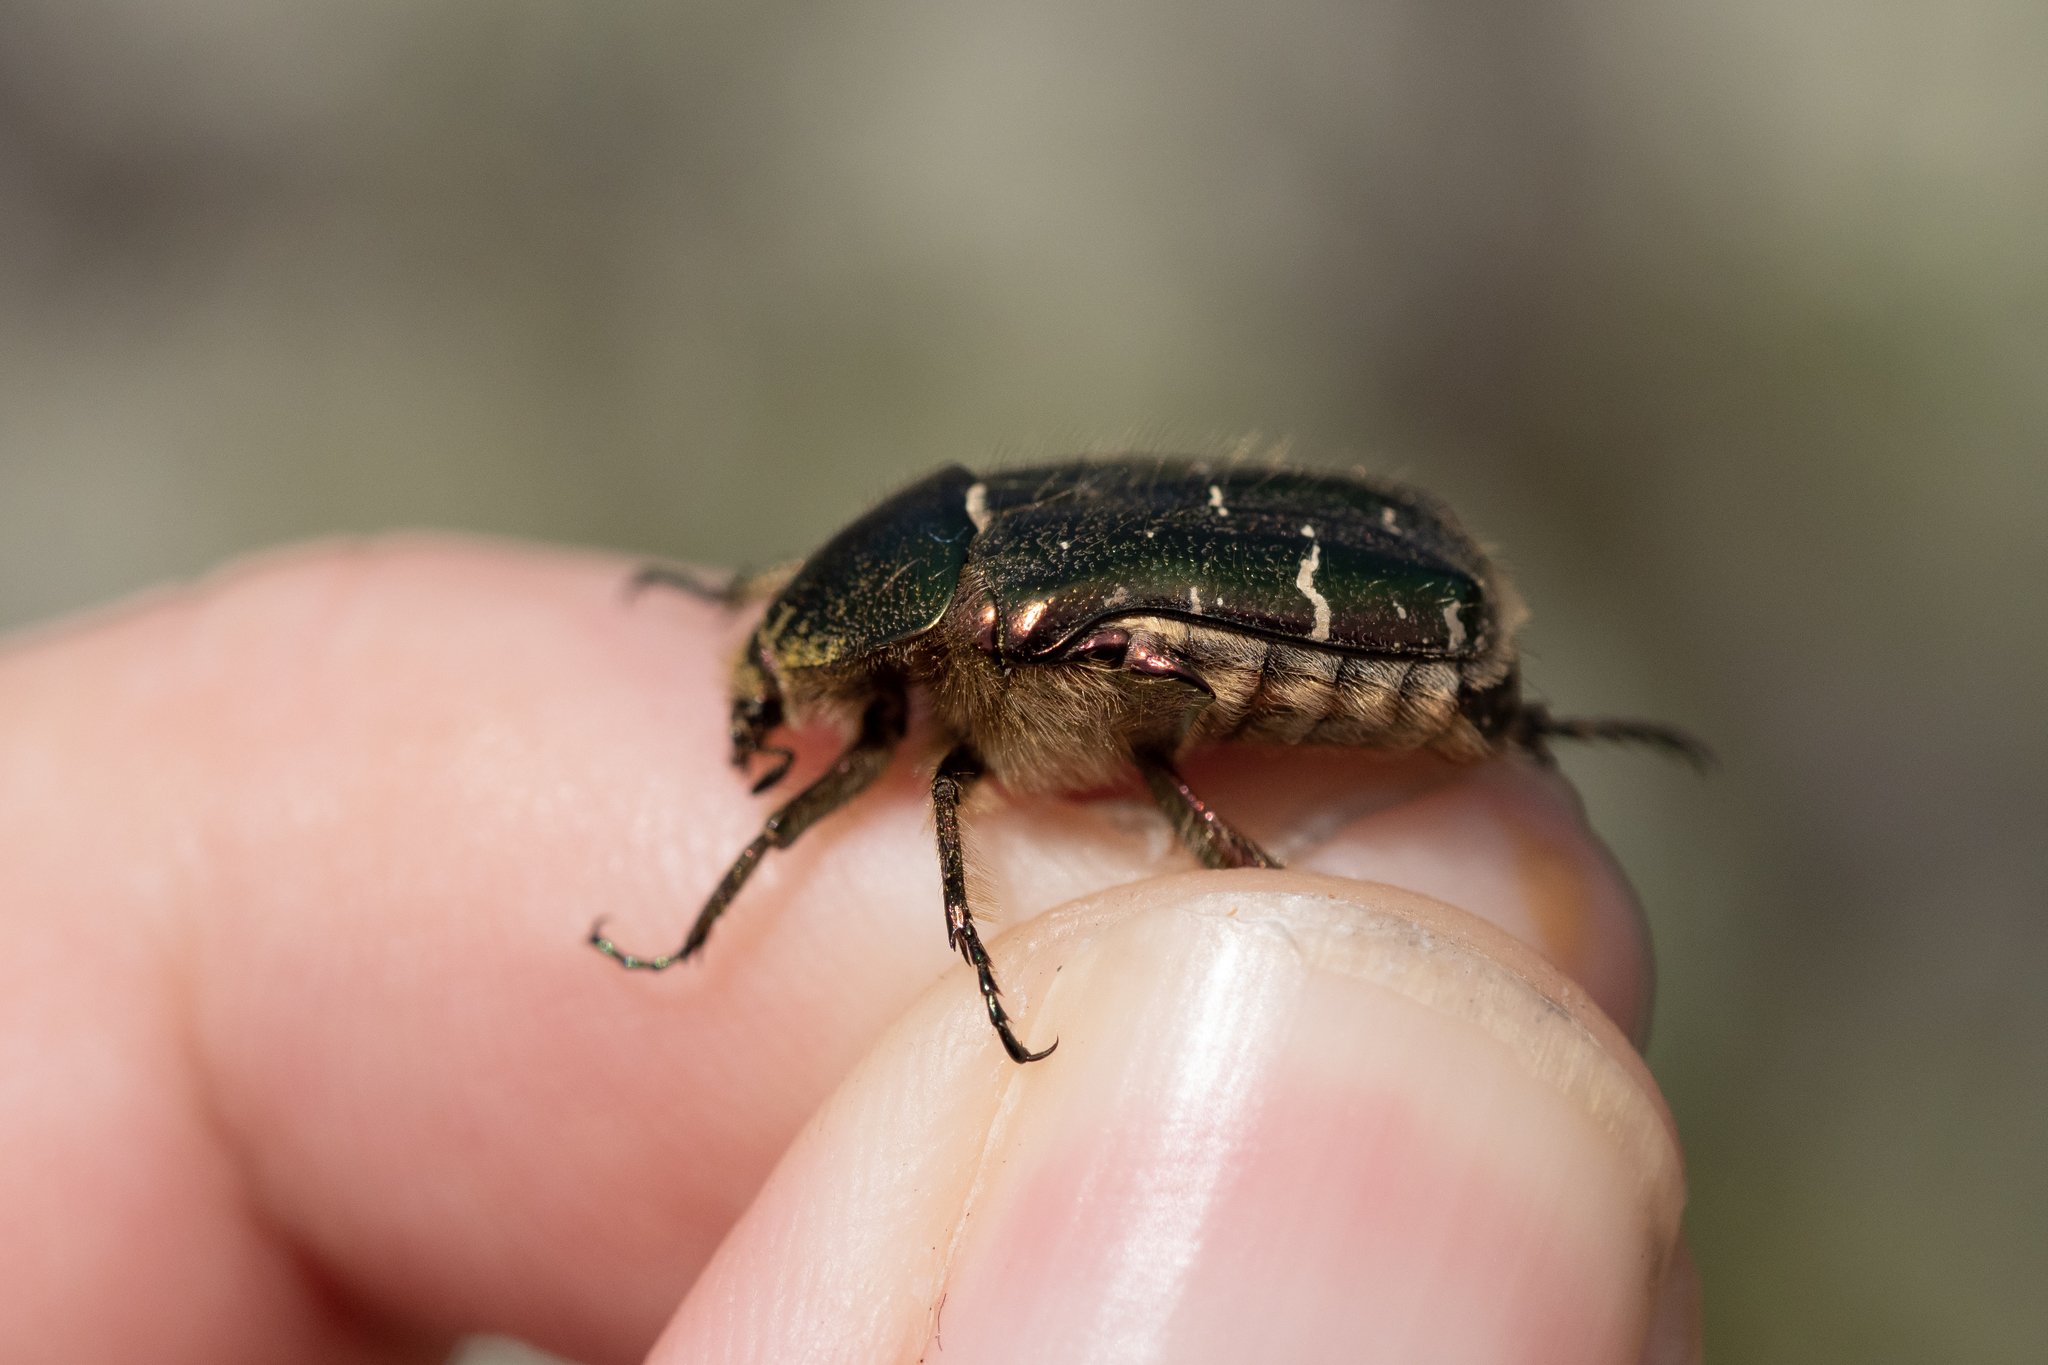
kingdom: Animalia
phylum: Arthropoda
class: Insecta
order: Coleoptera
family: Scarabaeidae
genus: Cetonia
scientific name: Cetonia aurata
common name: Rose chafer
